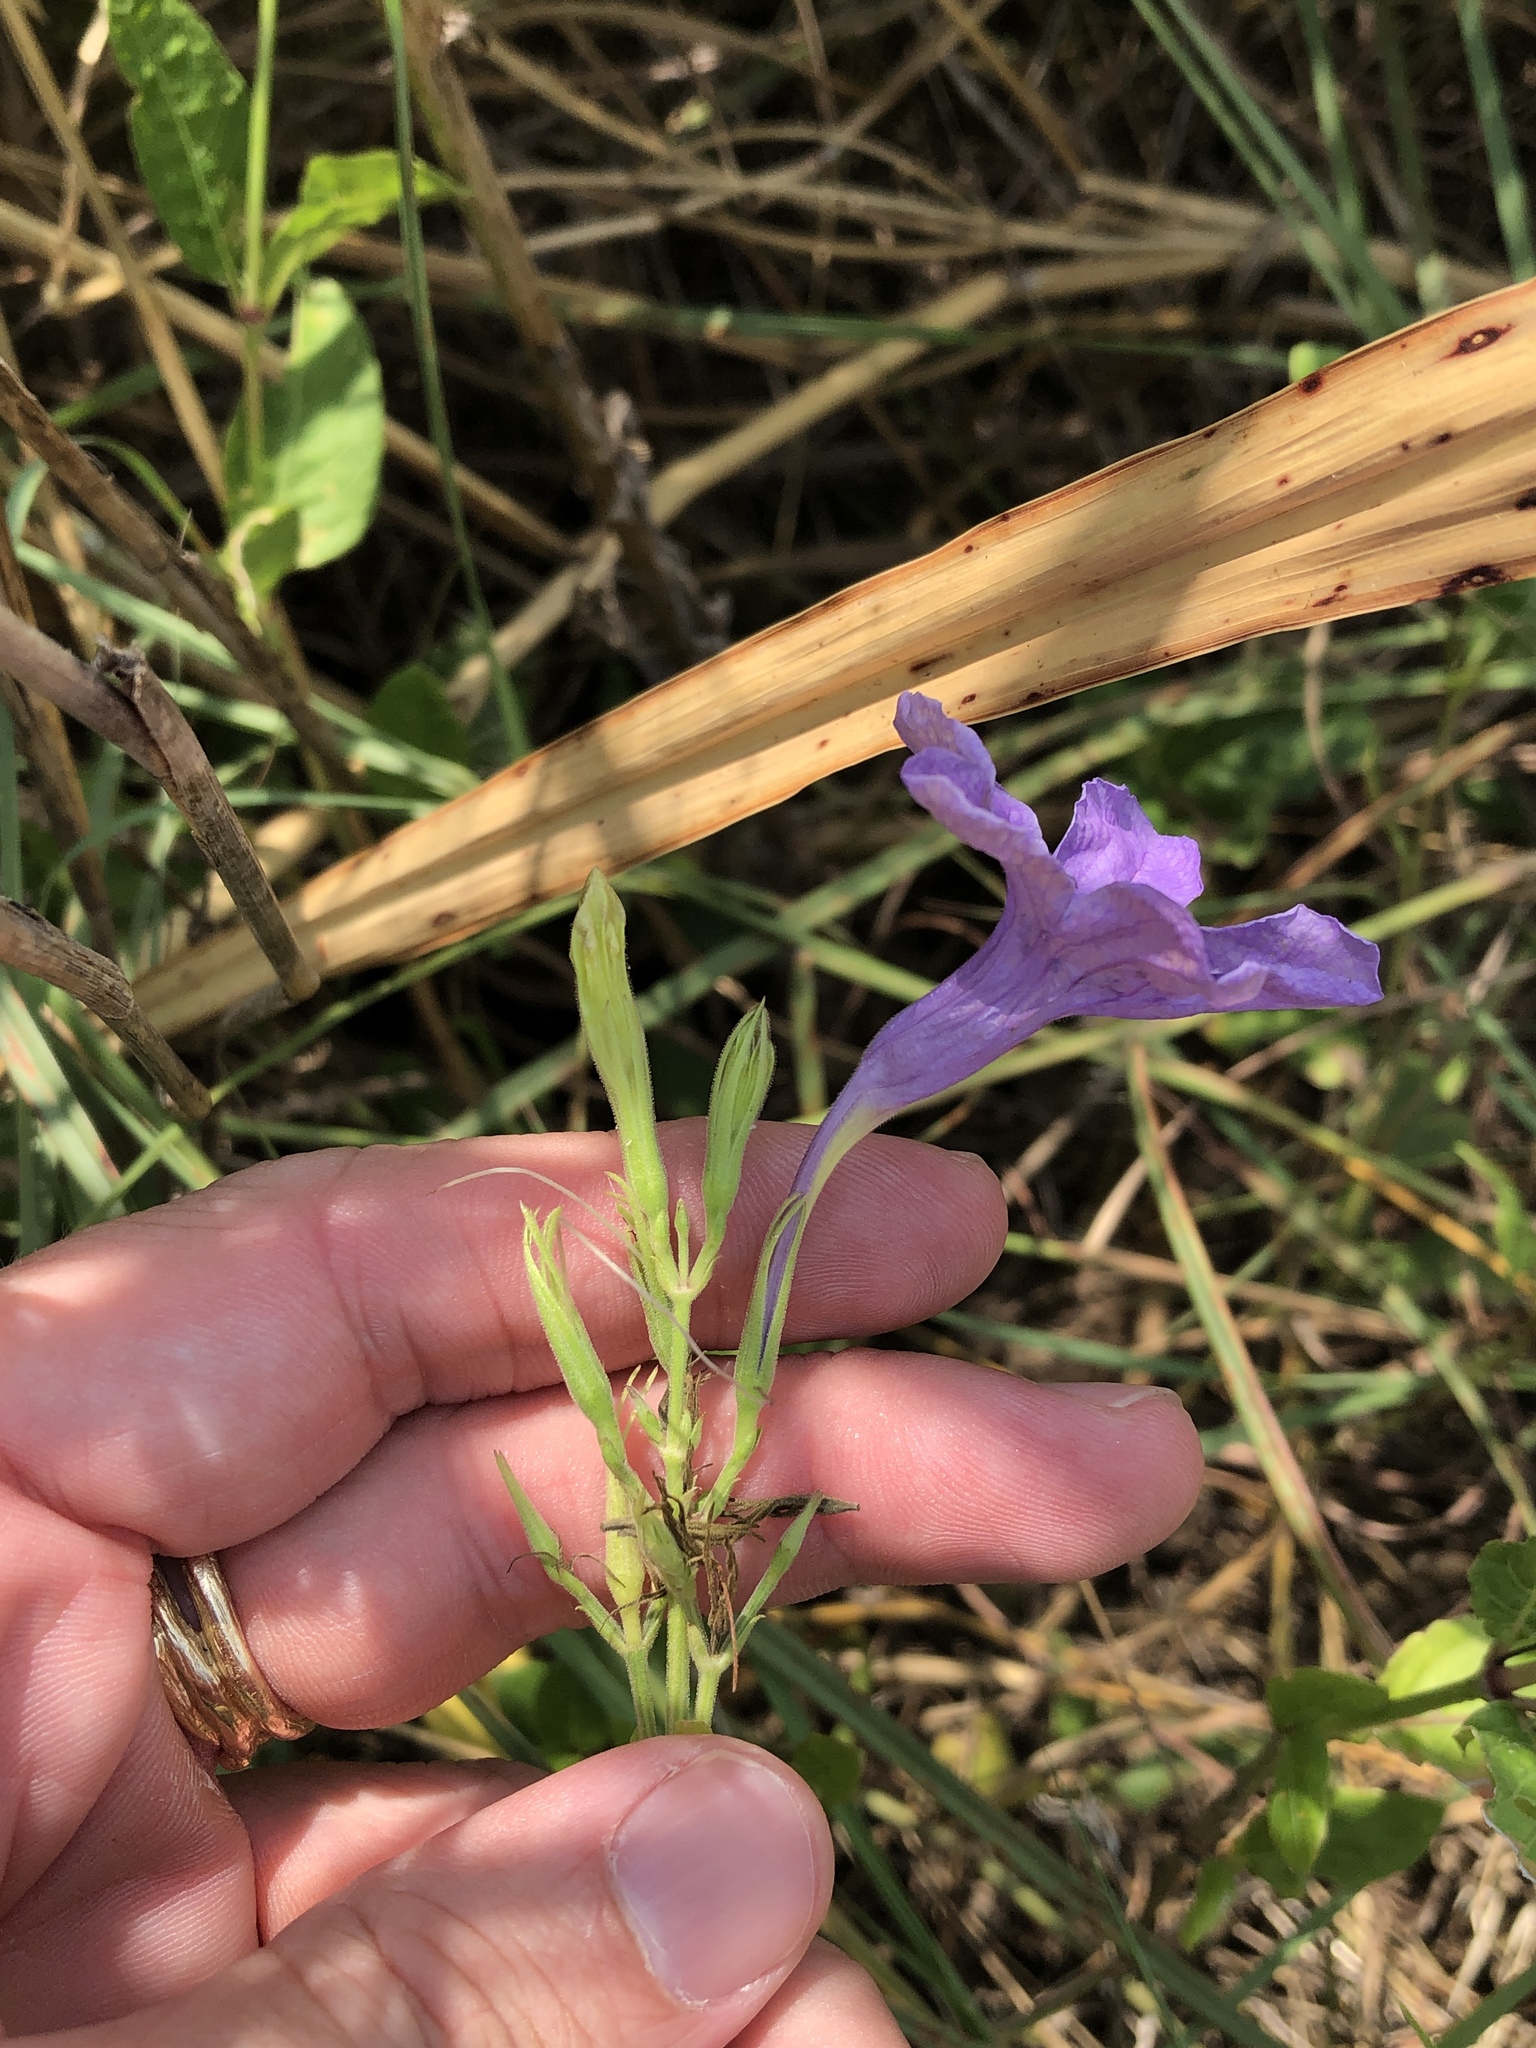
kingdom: Plantae
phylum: Tracheophyta
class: Magnoliopsida
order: Lamiales
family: Acanthaceae
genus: Ruellia
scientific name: Ruellia ciliatiflora
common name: Hairyflower wild petunia
